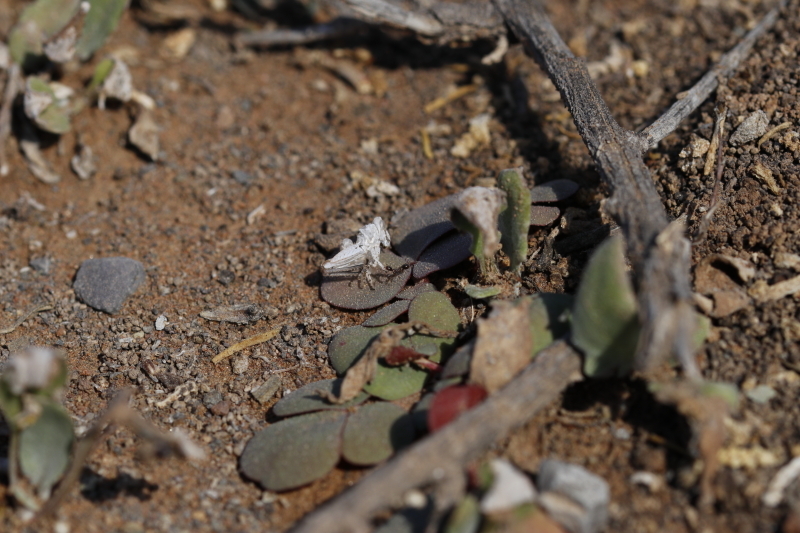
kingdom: Animalia
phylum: Arthropoda
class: Insecta
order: Hymenoptera
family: Formicidae
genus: Monomorium
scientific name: Monomorium fridae
